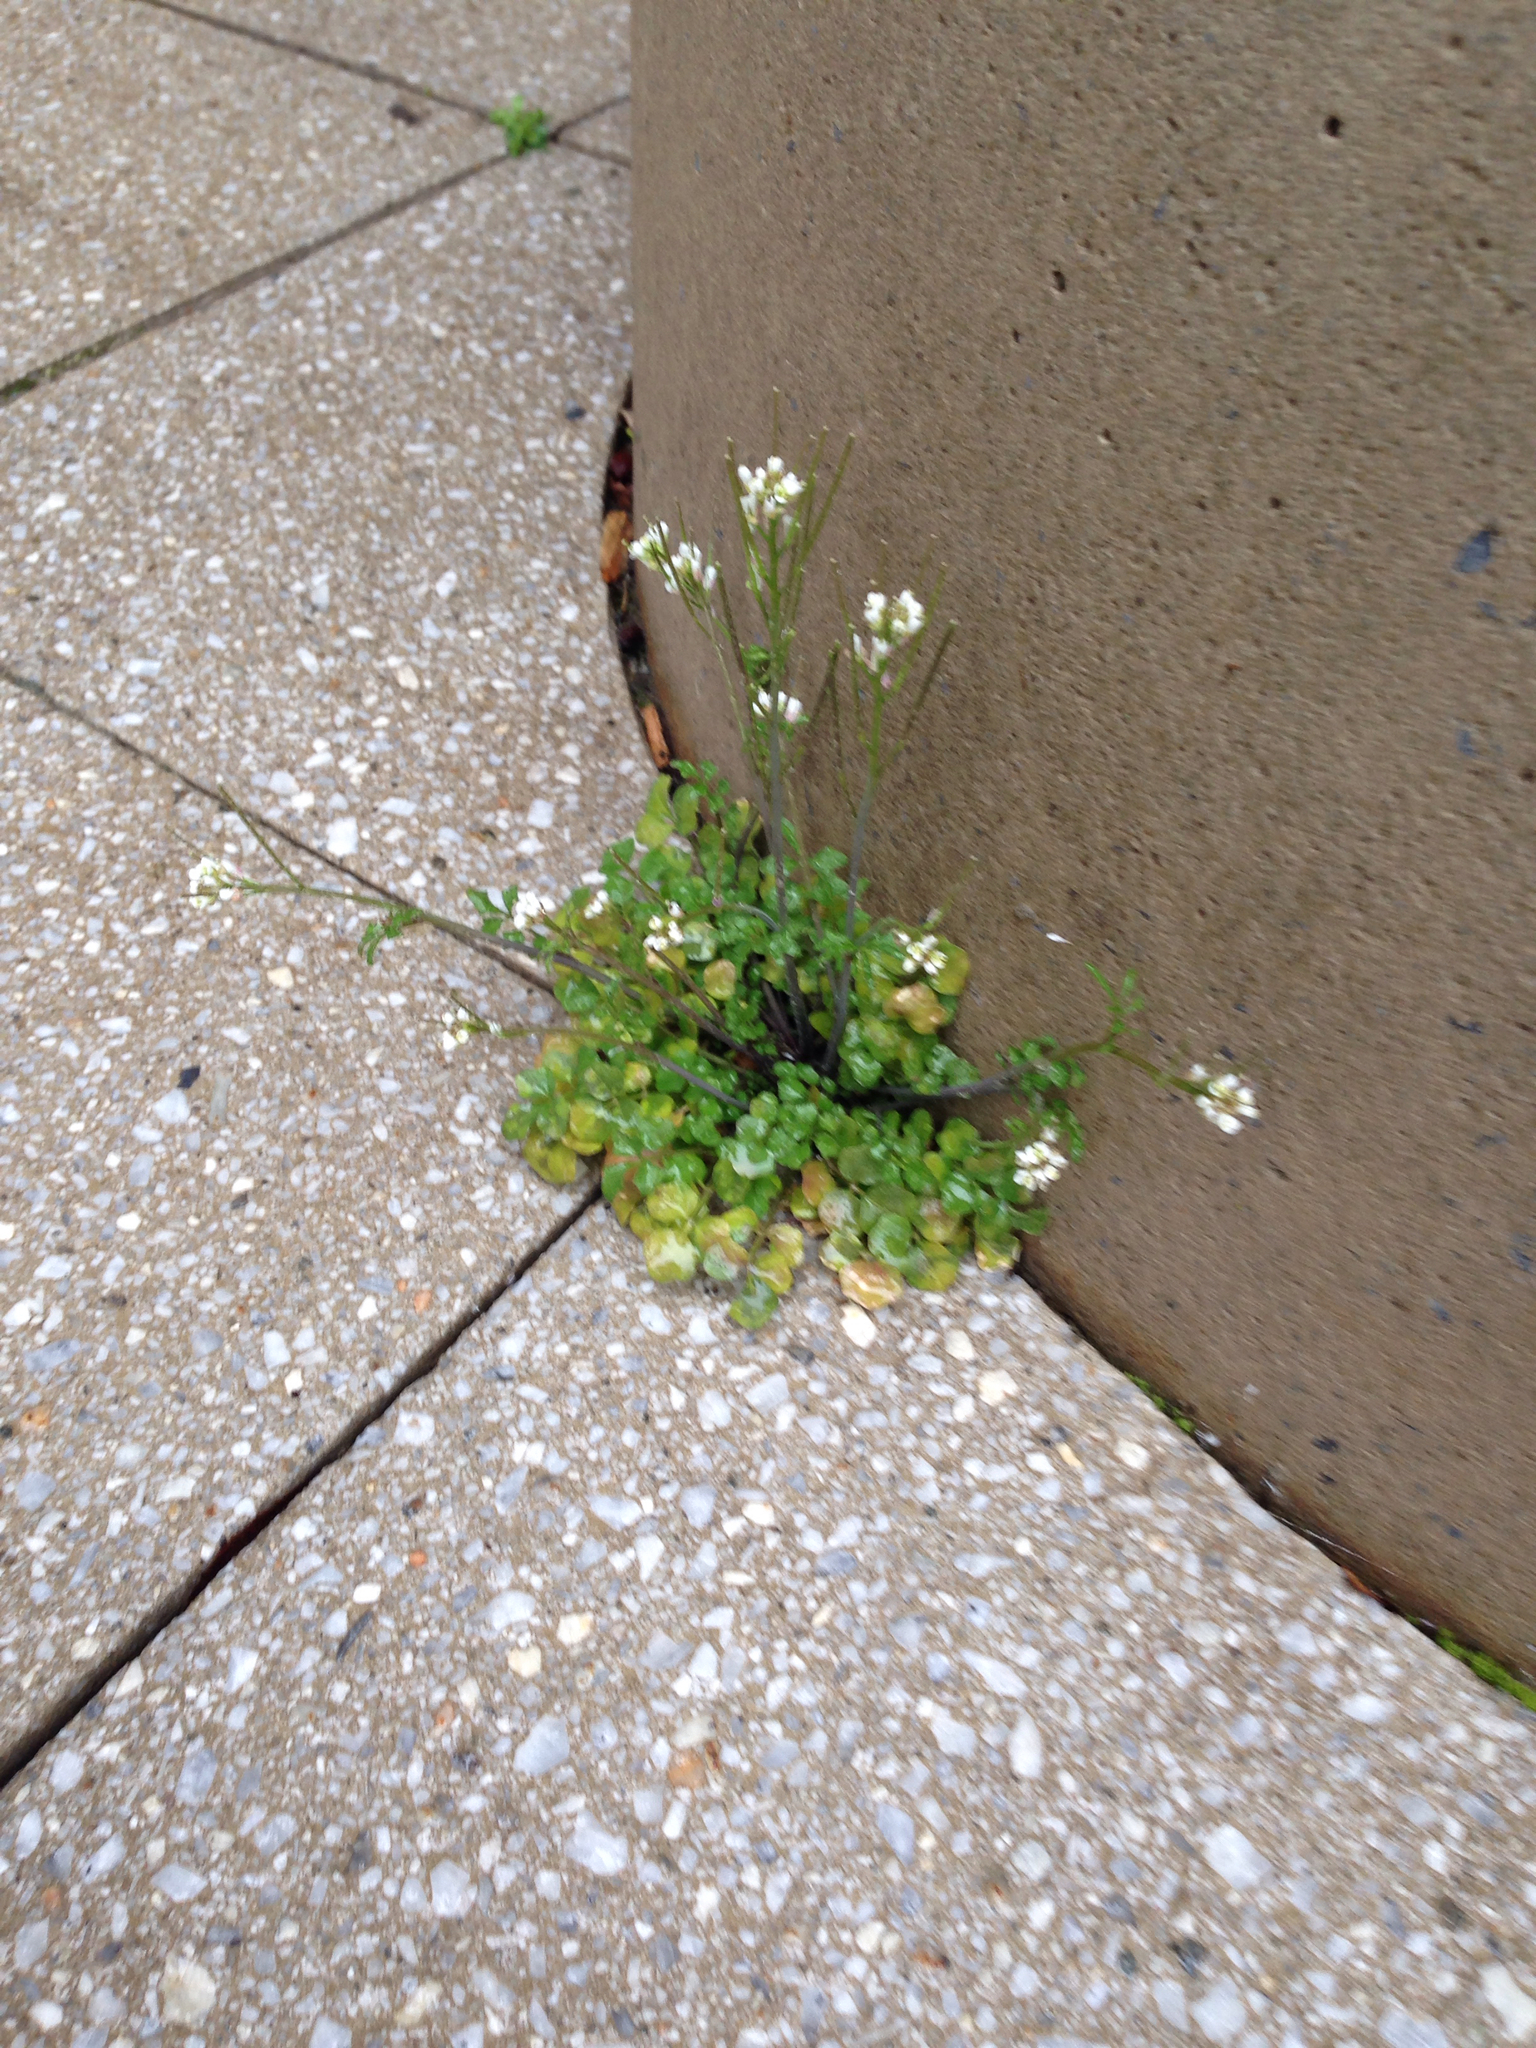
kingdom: Plantae
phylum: Tracheophyta
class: Magnoliopsida
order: Brassicales
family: Brassicaceae
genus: Cardamine
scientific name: Cardamine hirsuta
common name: Hairy bittercress
